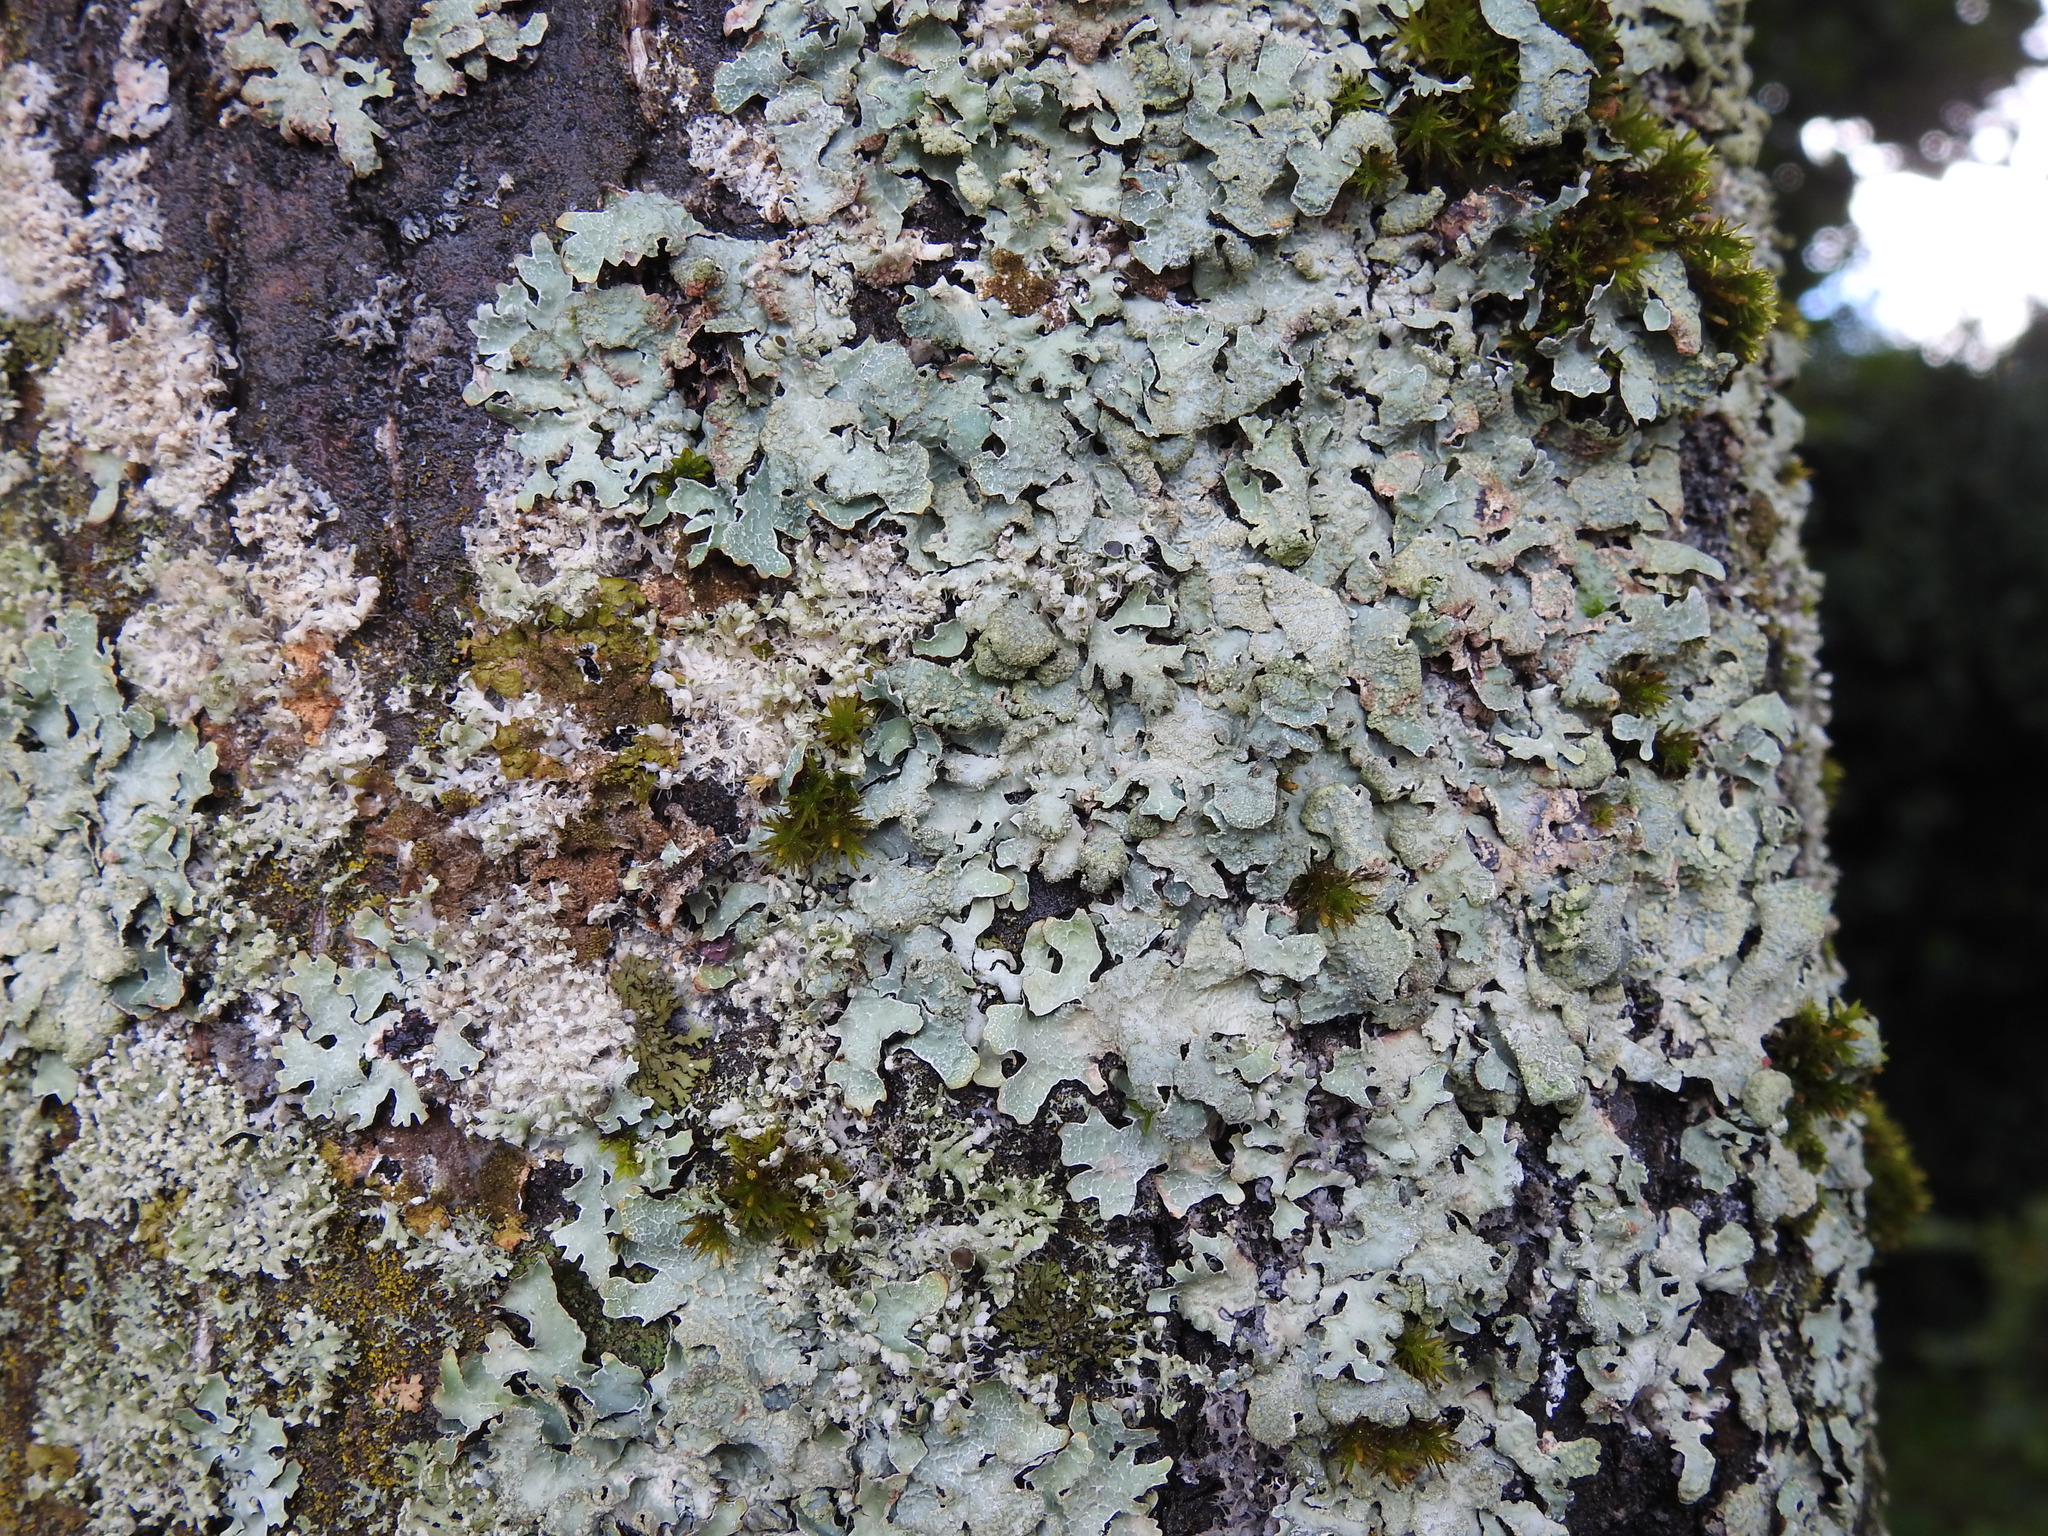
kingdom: Fungi
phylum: Ascomycota
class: Lecanoromycetes
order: Lecanorales
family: Parmeliaceae
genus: Parmelia
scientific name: Parmelia sulcata
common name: Netted shield lichen
